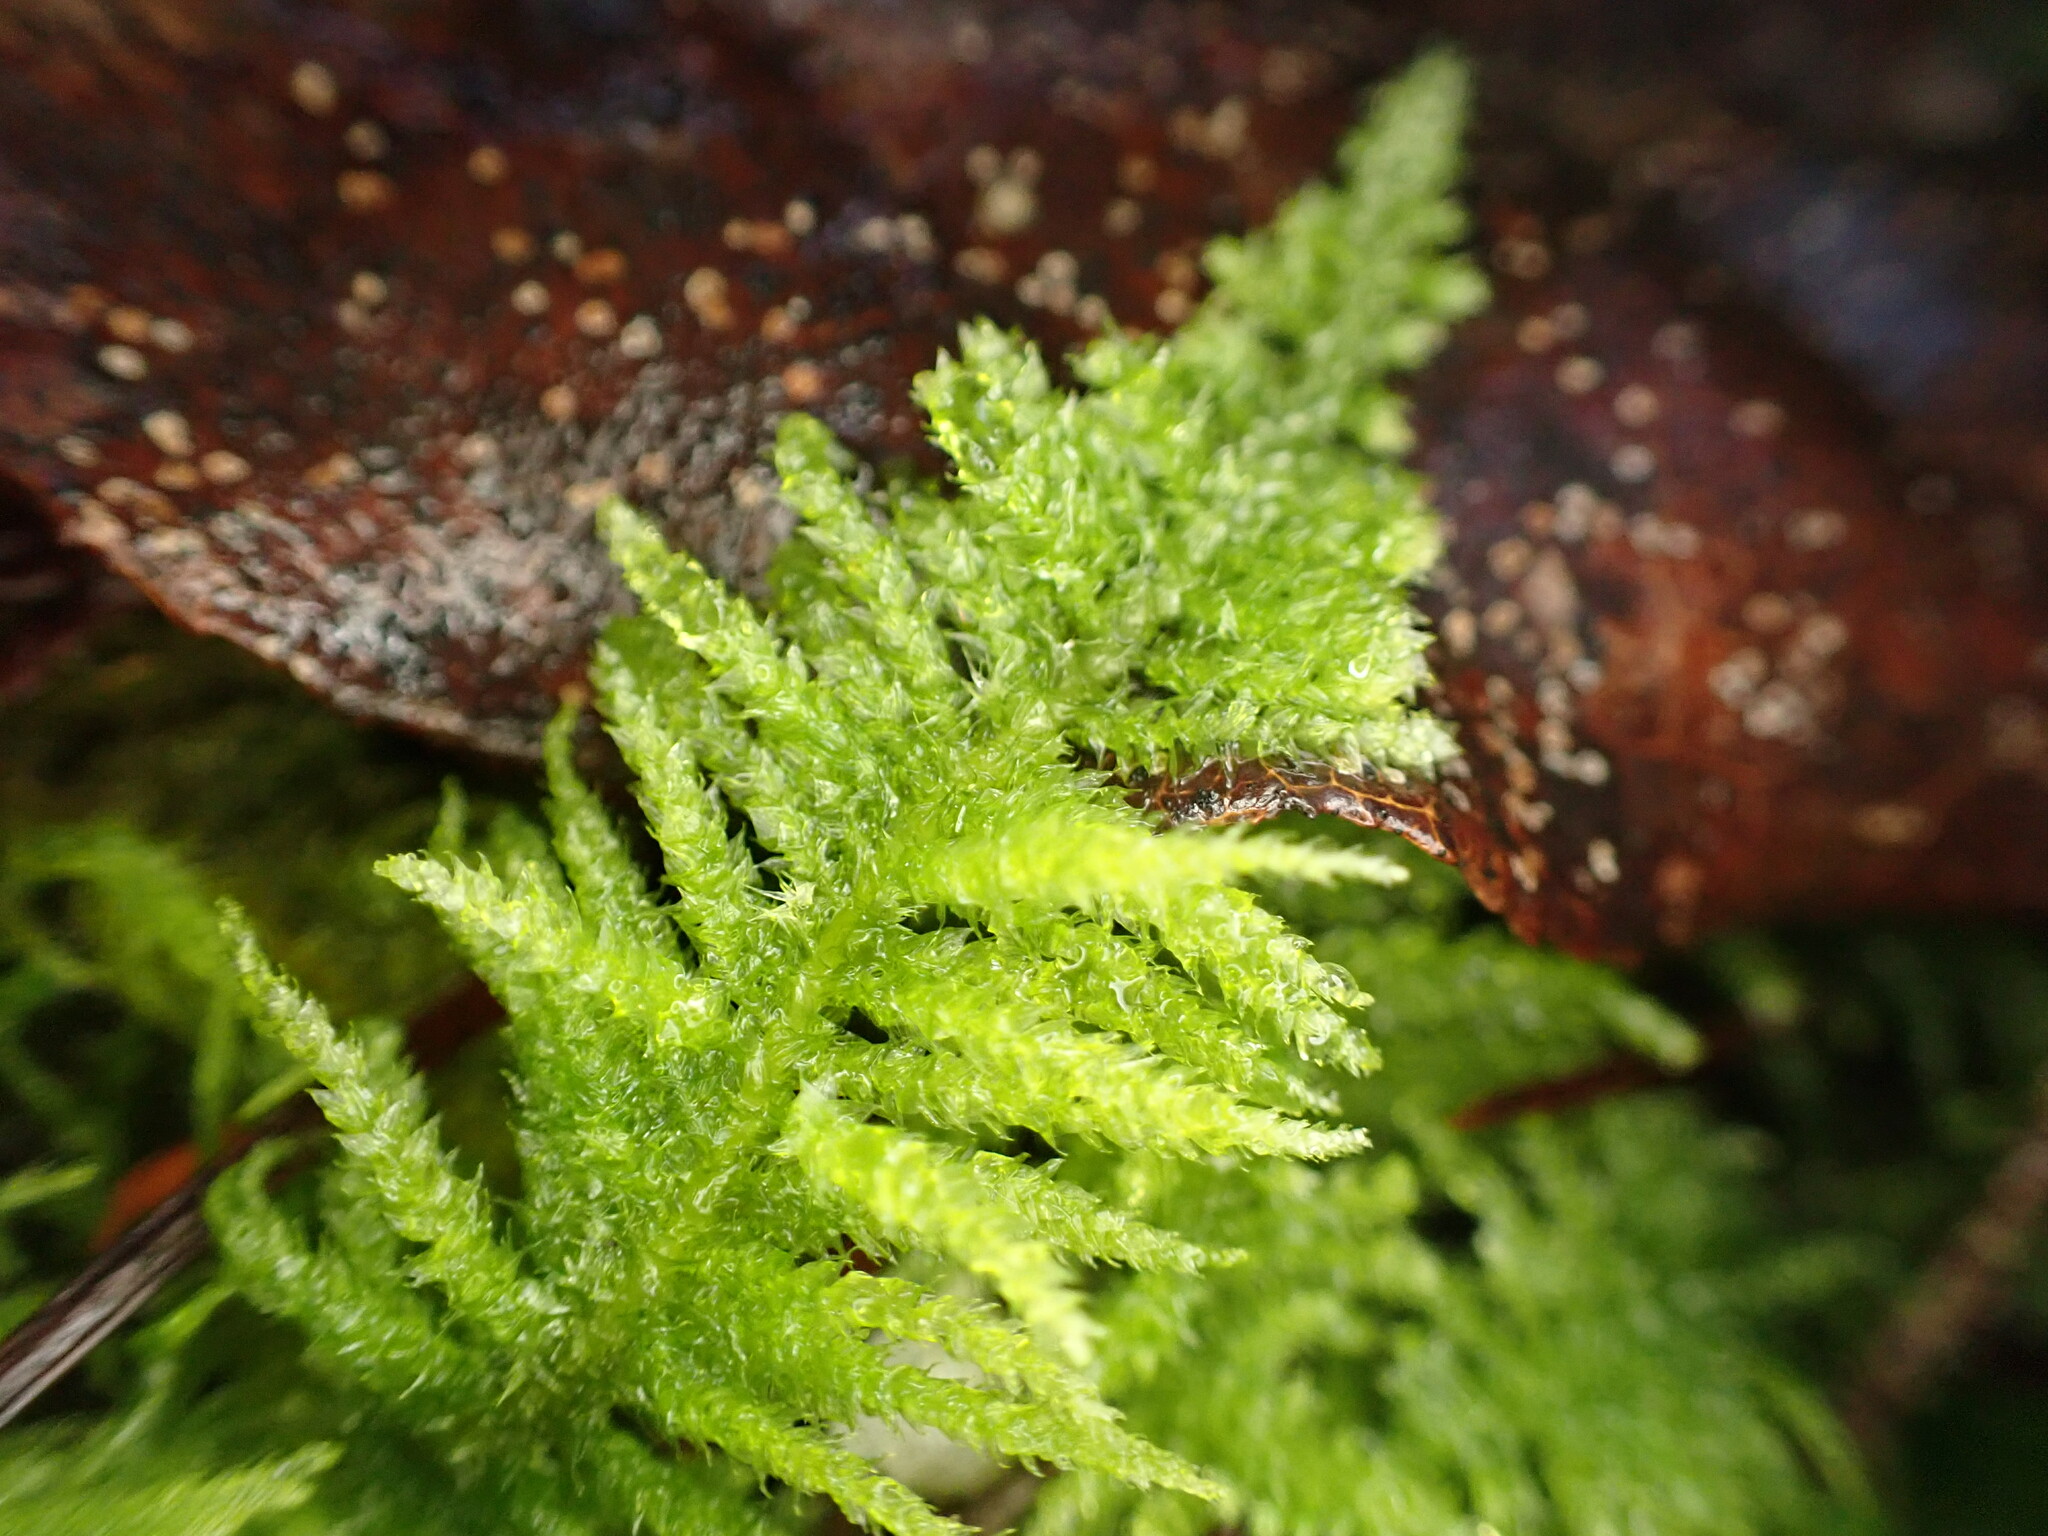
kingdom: Plantae
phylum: Bryophyta
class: Bryopsida
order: Hypnales
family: Brachytheciaceae
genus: Kindbergia
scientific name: Kindbergia oregana
